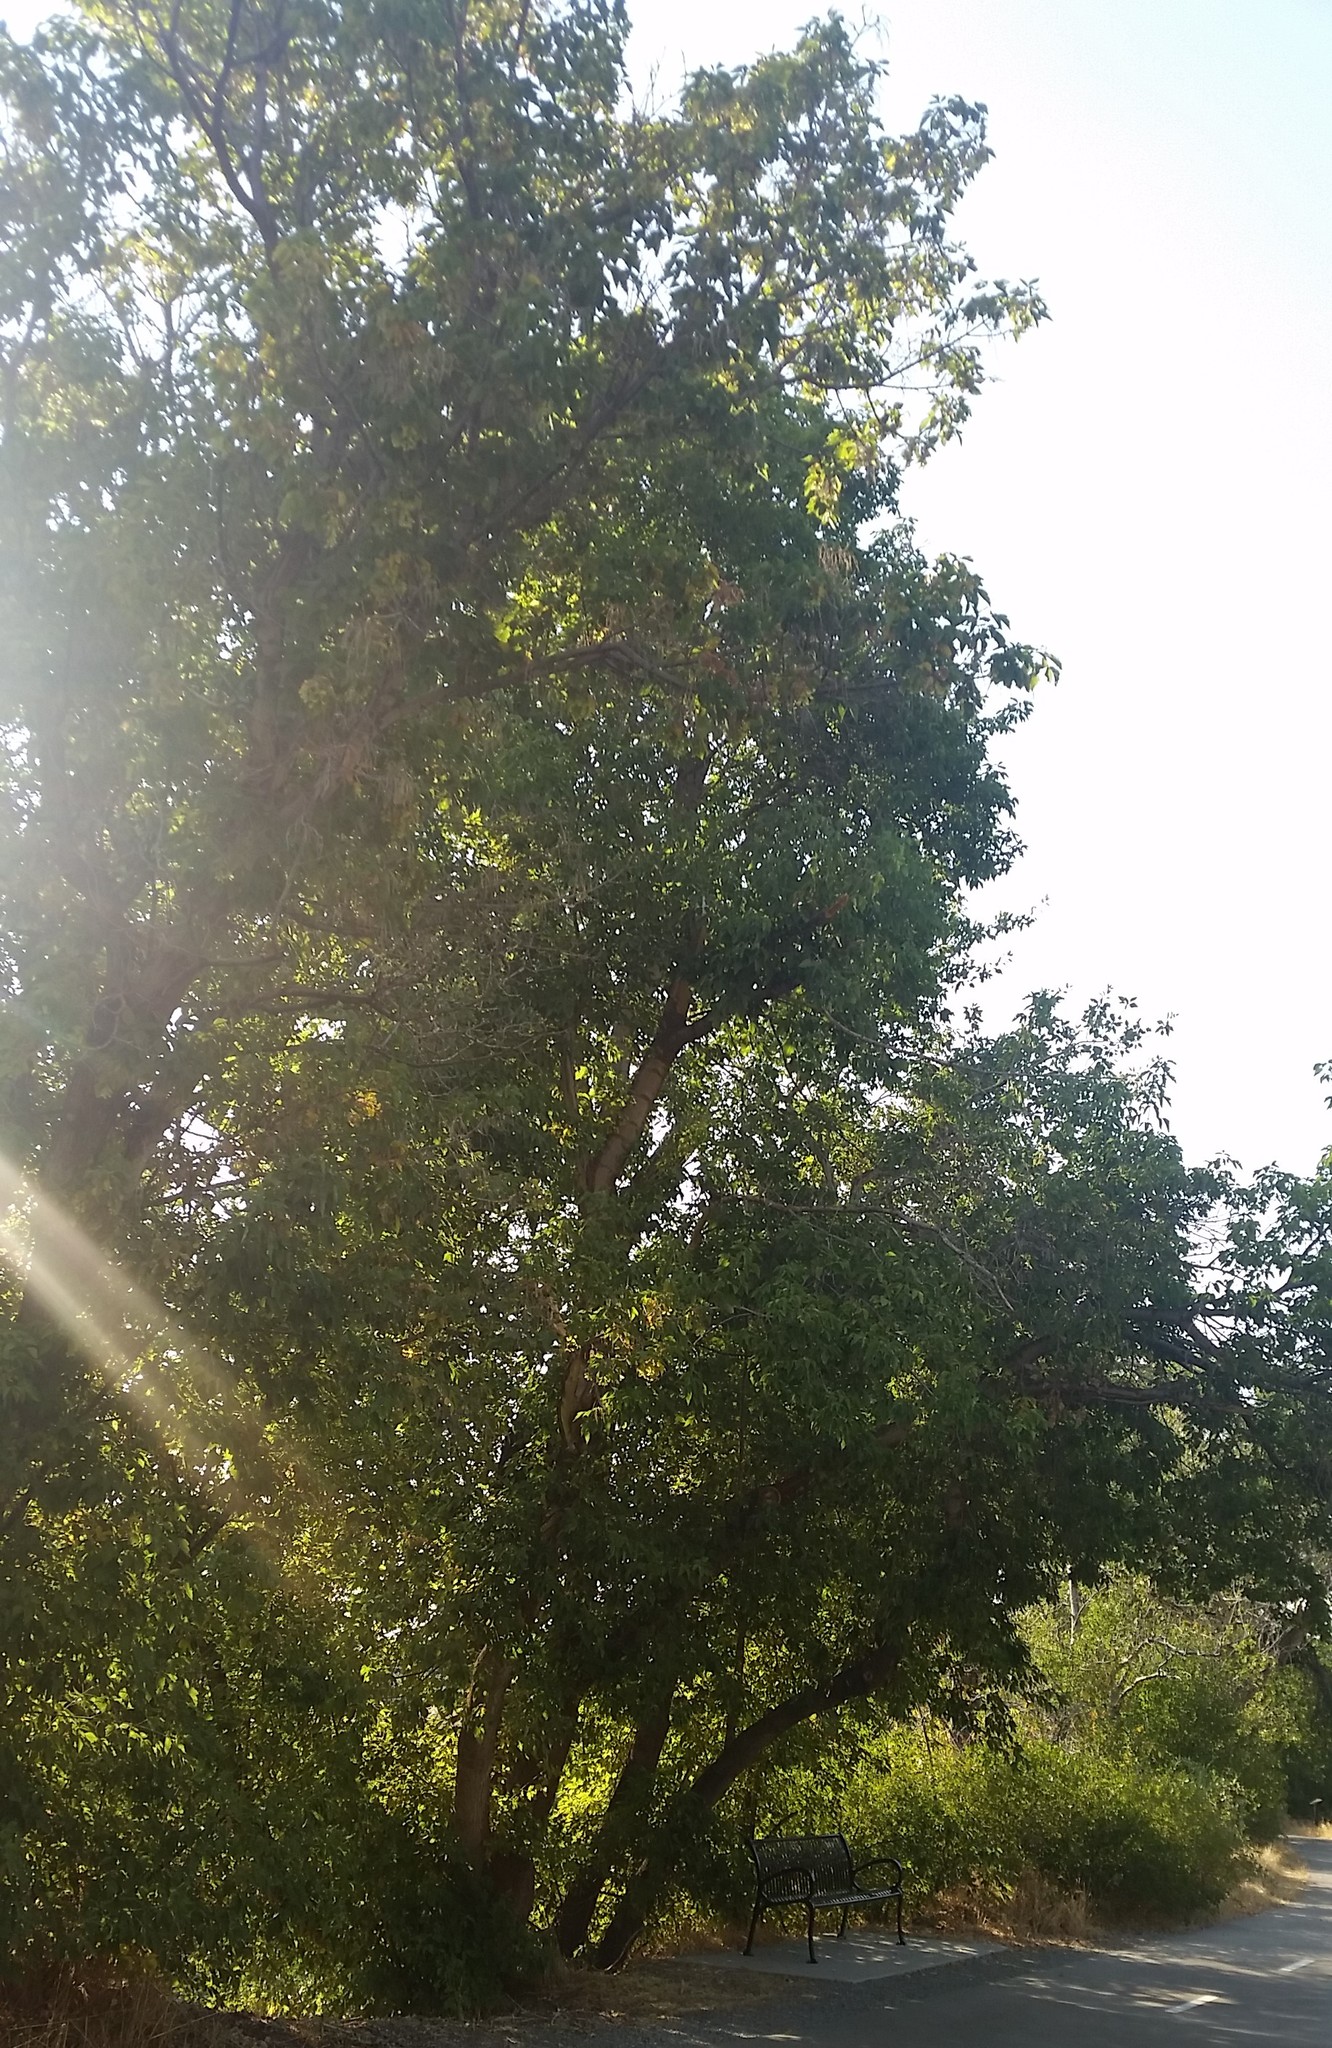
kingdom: Plantae
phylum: Tracheophyta
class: Magnoliopsida
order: Sapindales
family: Sapindaceae
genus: Acer
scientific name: Acer negundo
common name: Ashleaf maple
